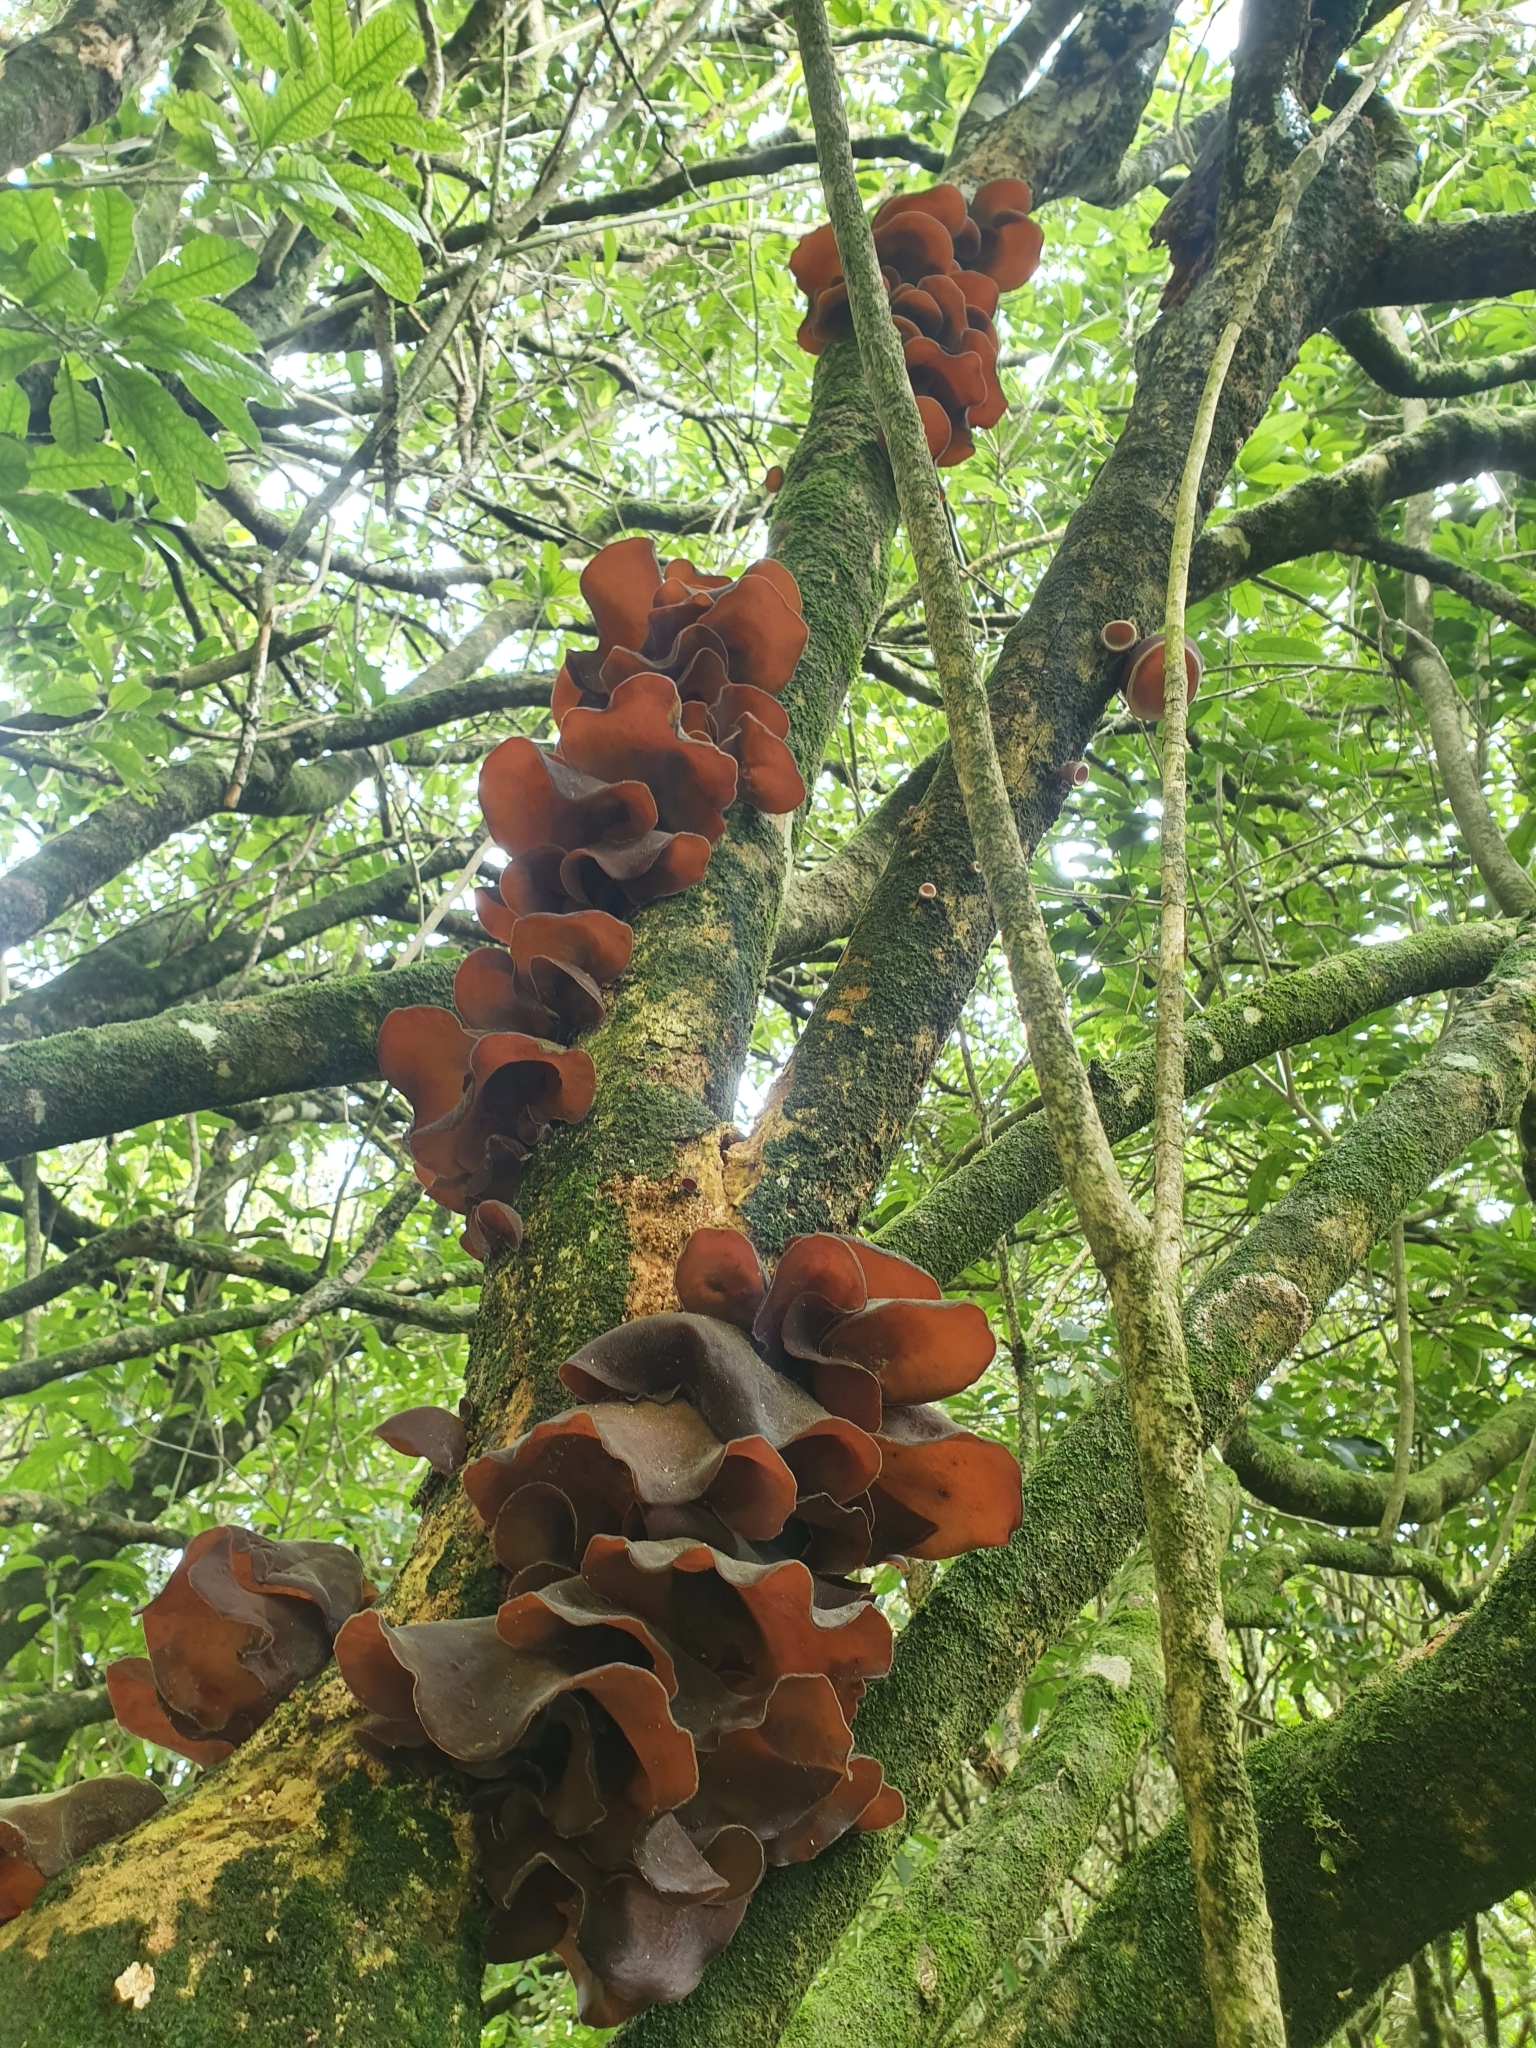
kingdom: Fungi
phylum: Basidiomycota
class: Agaricomycetes
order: Auriculariales
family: Auriculariaceae
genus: Auricularia
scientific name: Auricularia cornea
